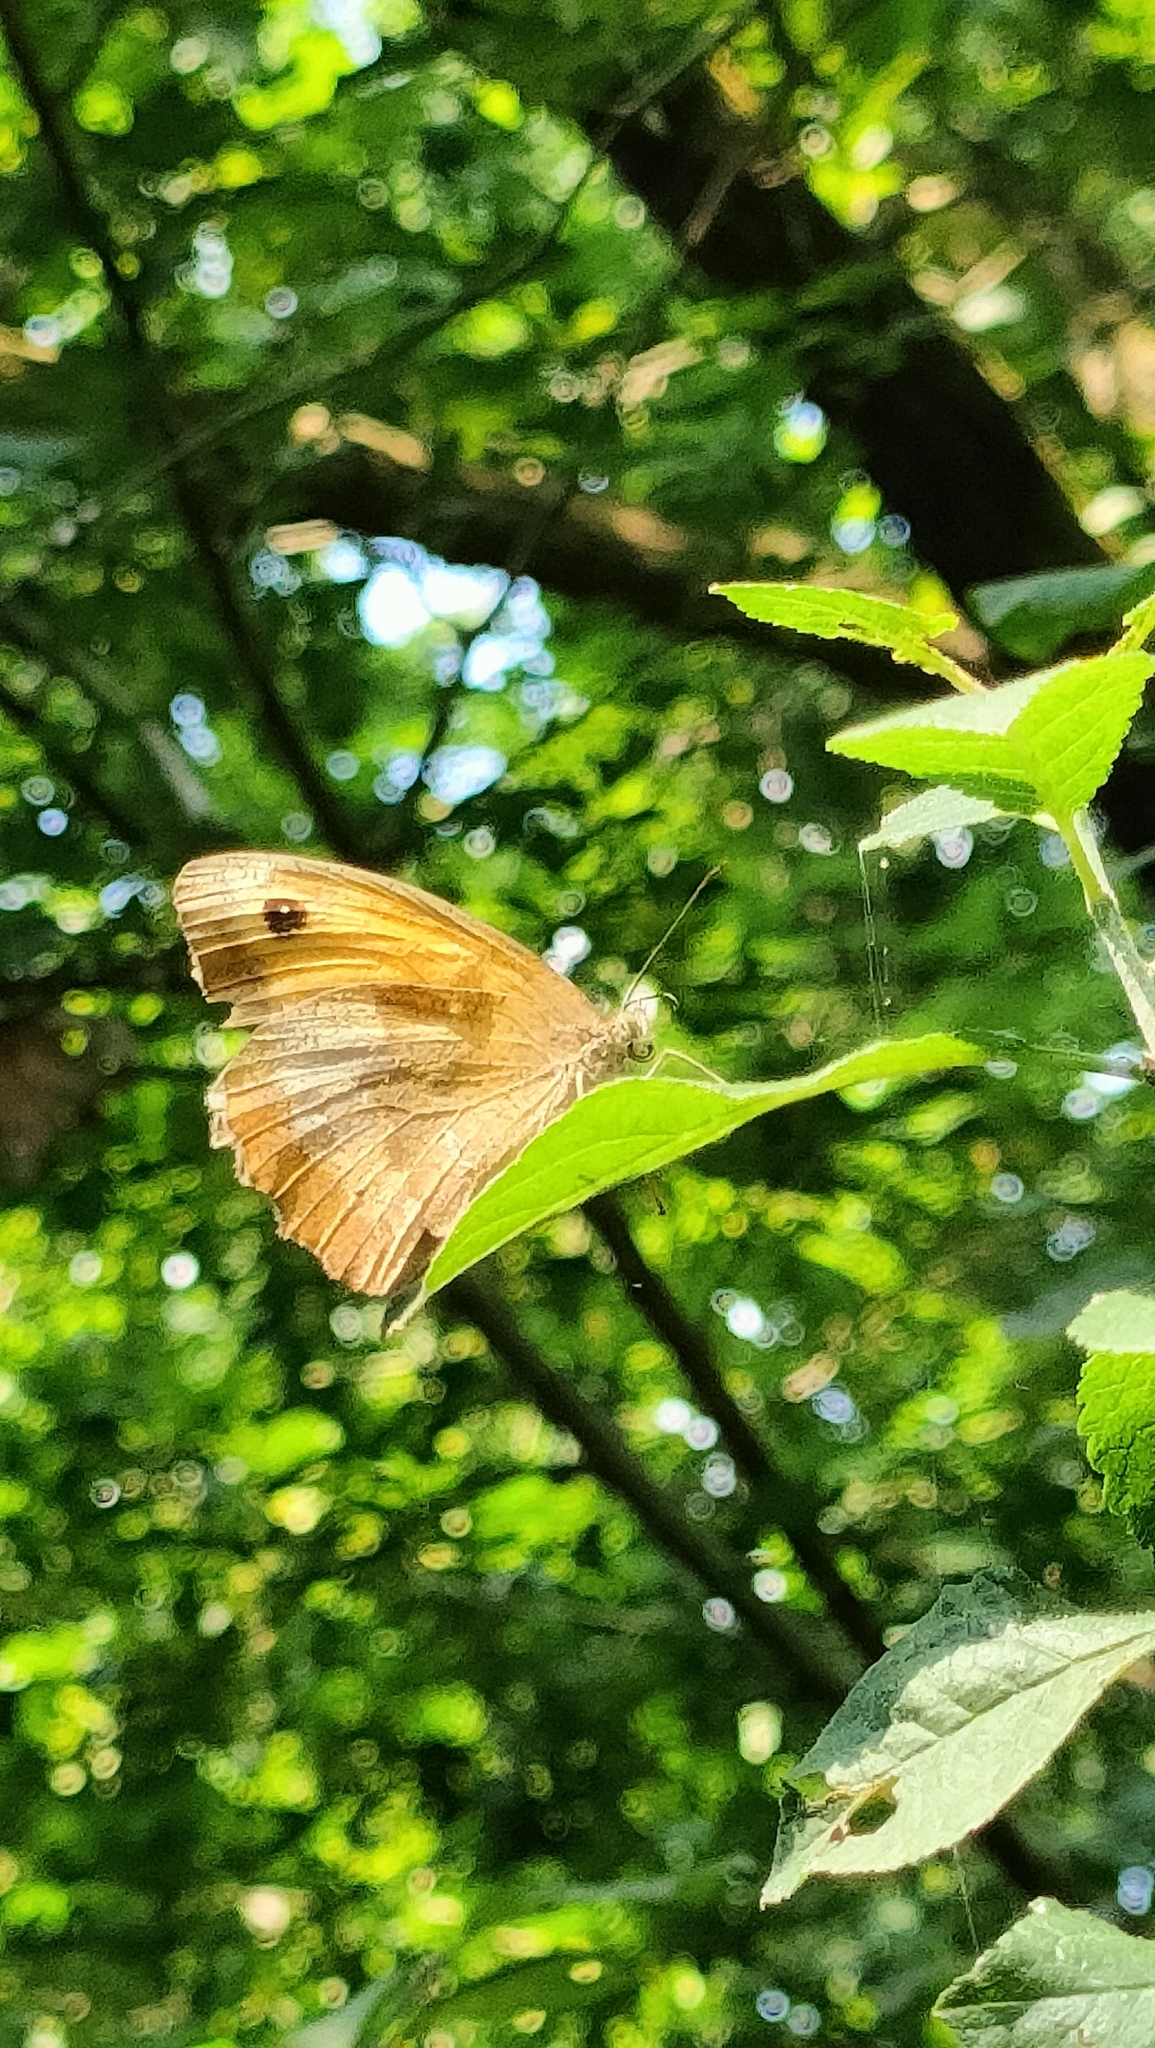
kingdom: Animalia
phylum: Arthropoda
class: Insecta
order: Lepidoptera
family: Nymphalidae
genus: Maniola
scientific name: Maniola jurtina
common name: Meadow brown
